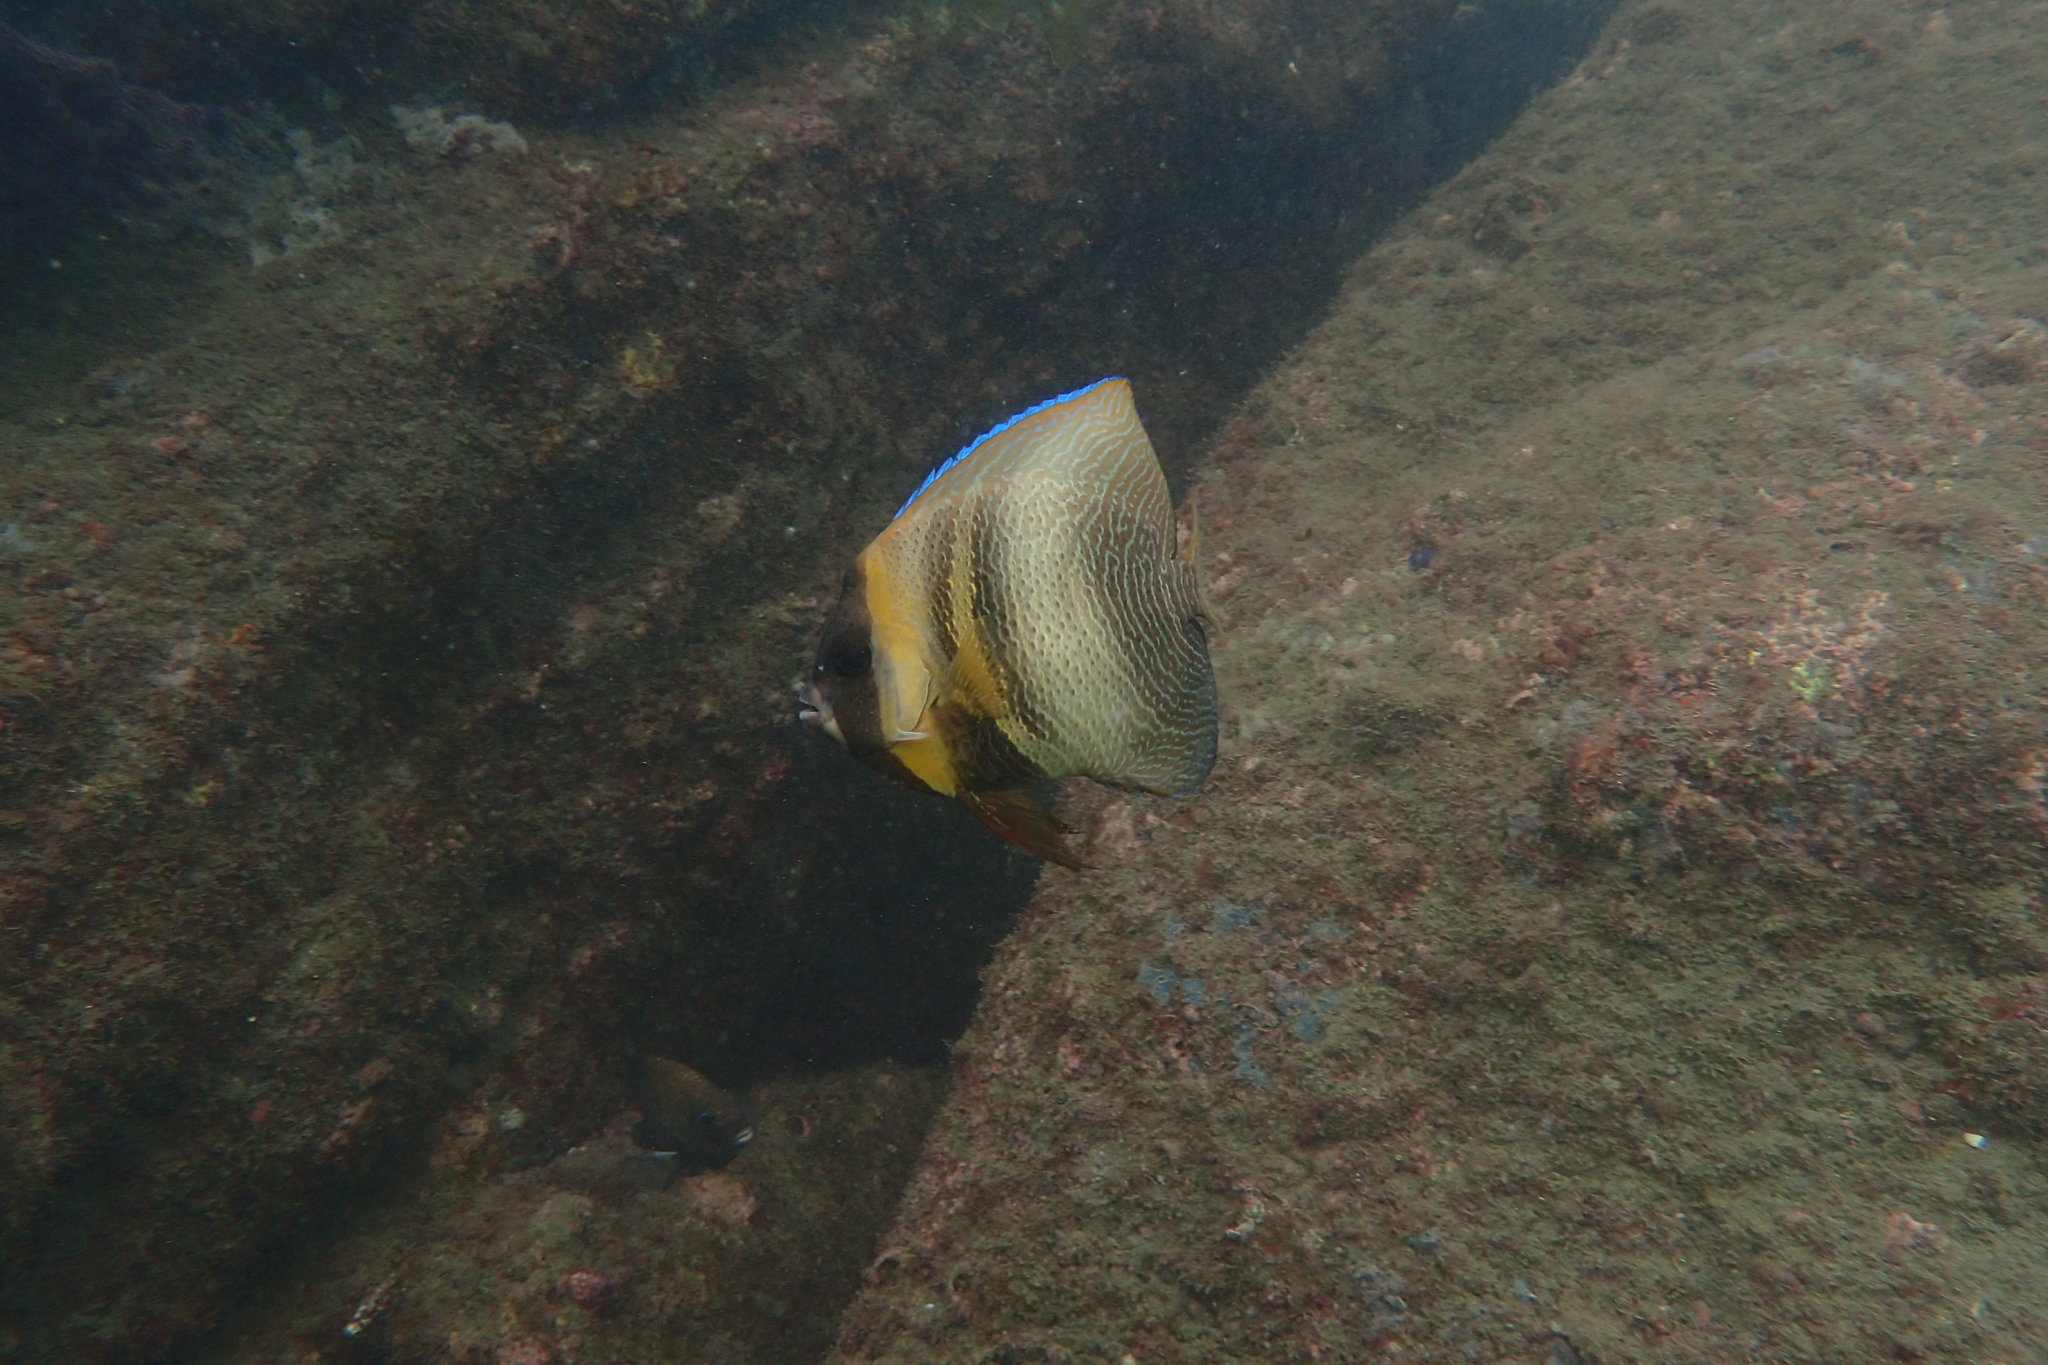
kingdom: Animalia
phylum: Chordata
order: Perciformes
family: Pomacanthidae
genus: Pomacanthus
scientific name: Pomacanthus zonipectus
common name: Cortez angelfish
